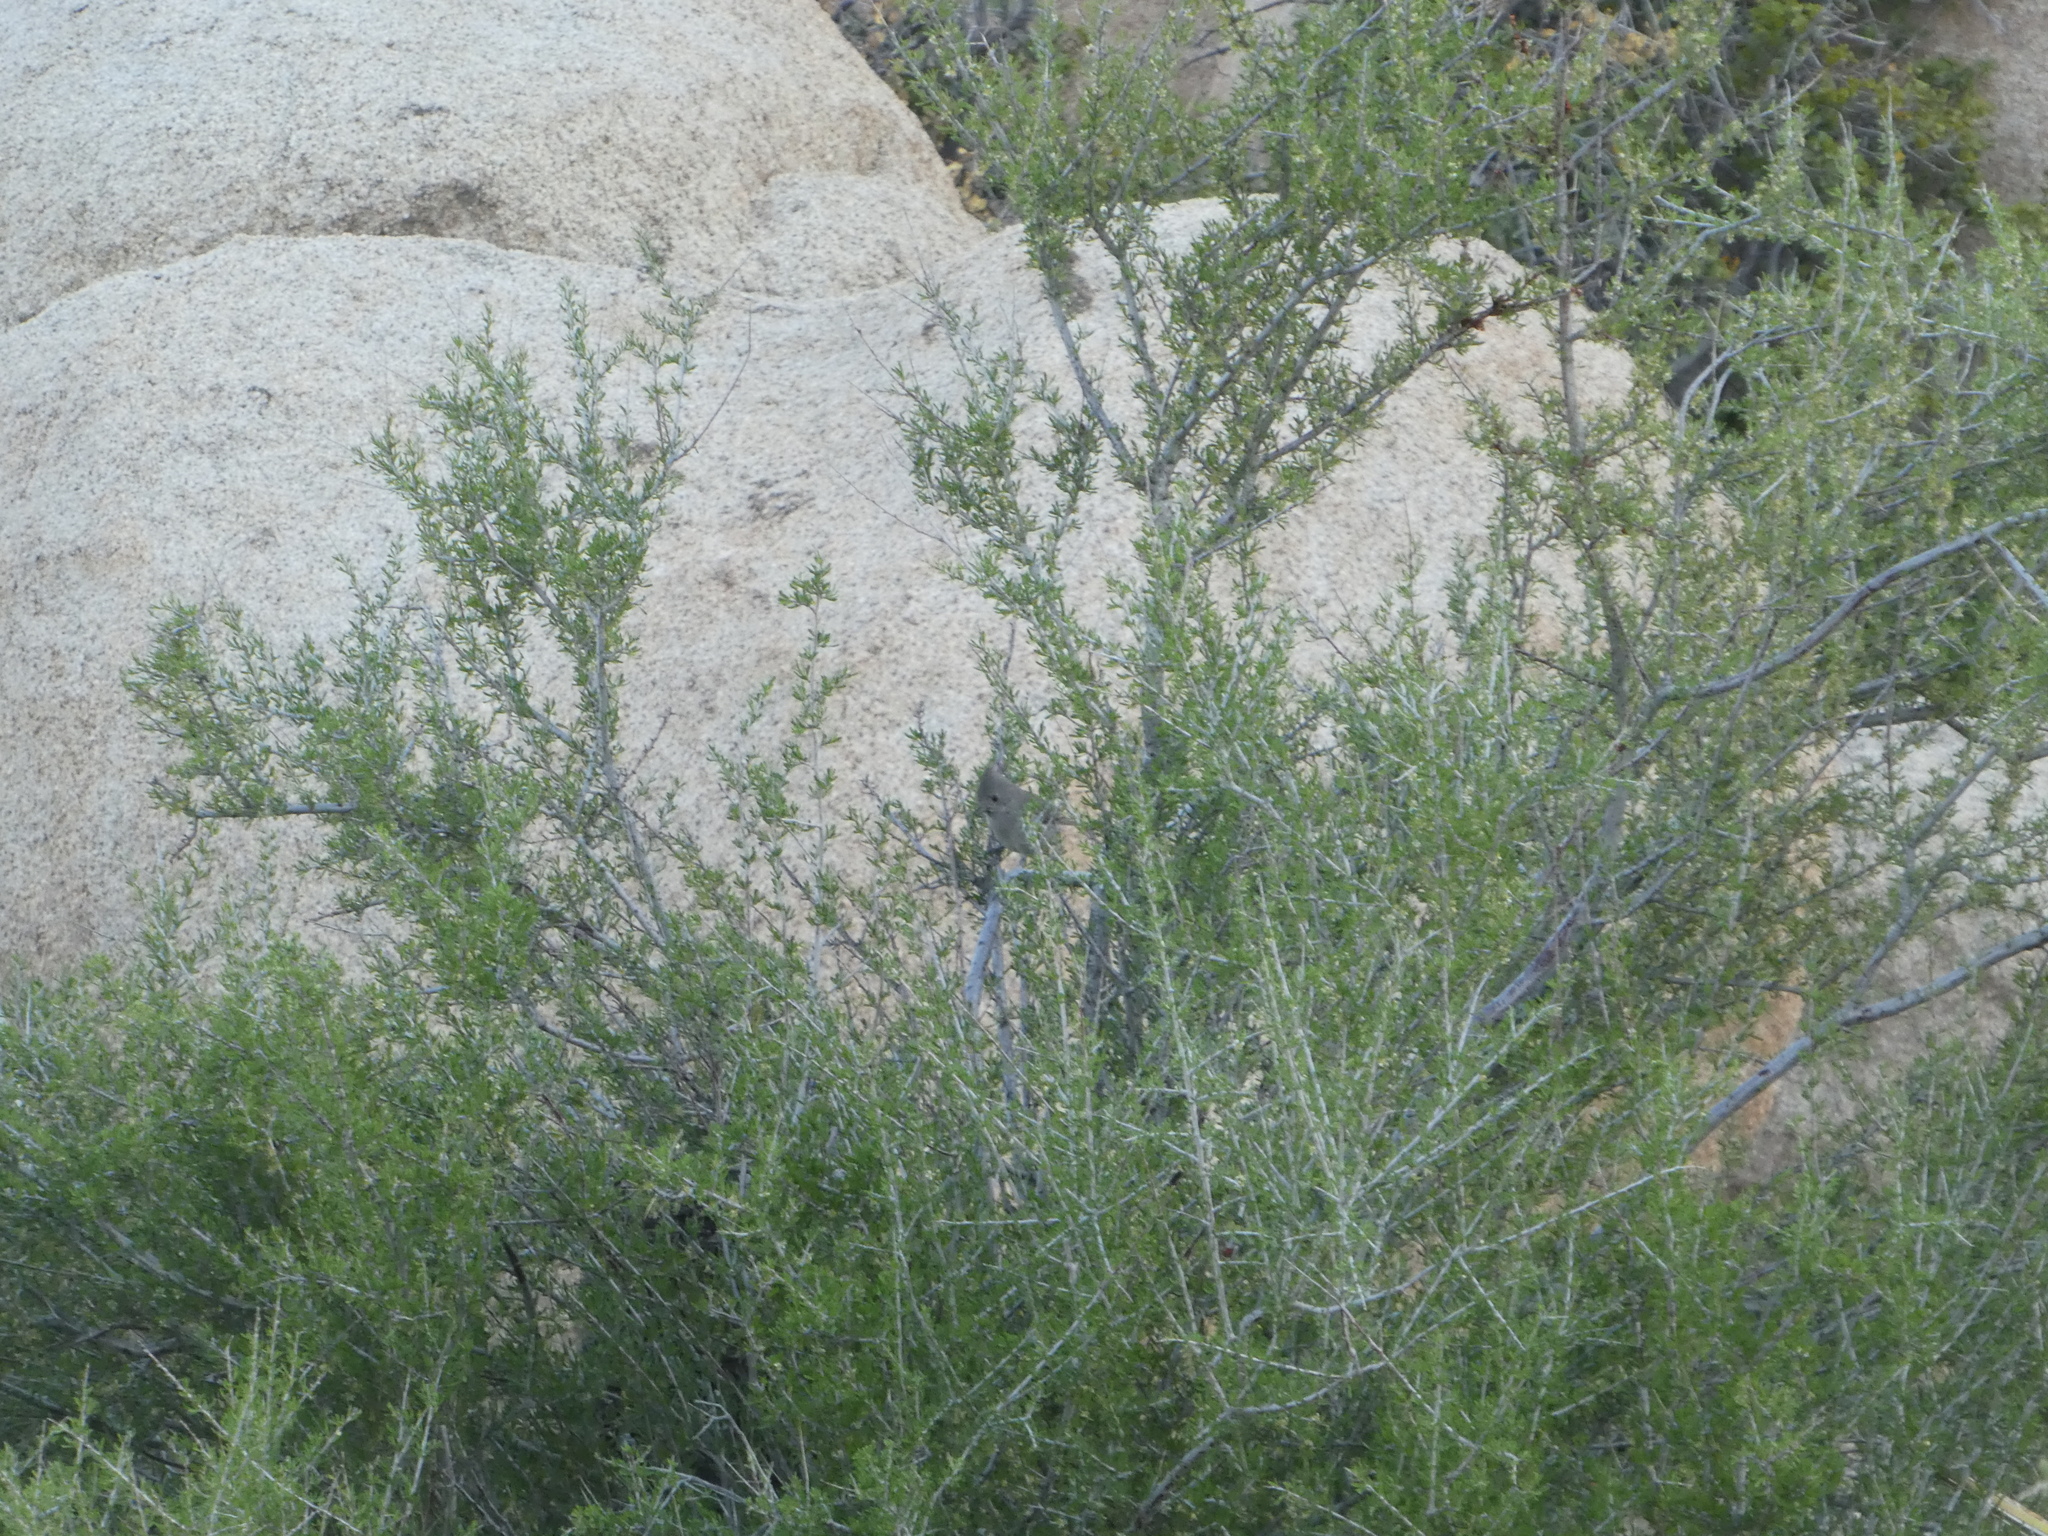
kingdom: Animalia
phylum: Chordata
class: Aves
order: Passeriformes
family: Paridae
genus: Baeolophus
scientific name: Baeolophus inornatus
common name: Oak titmouse
